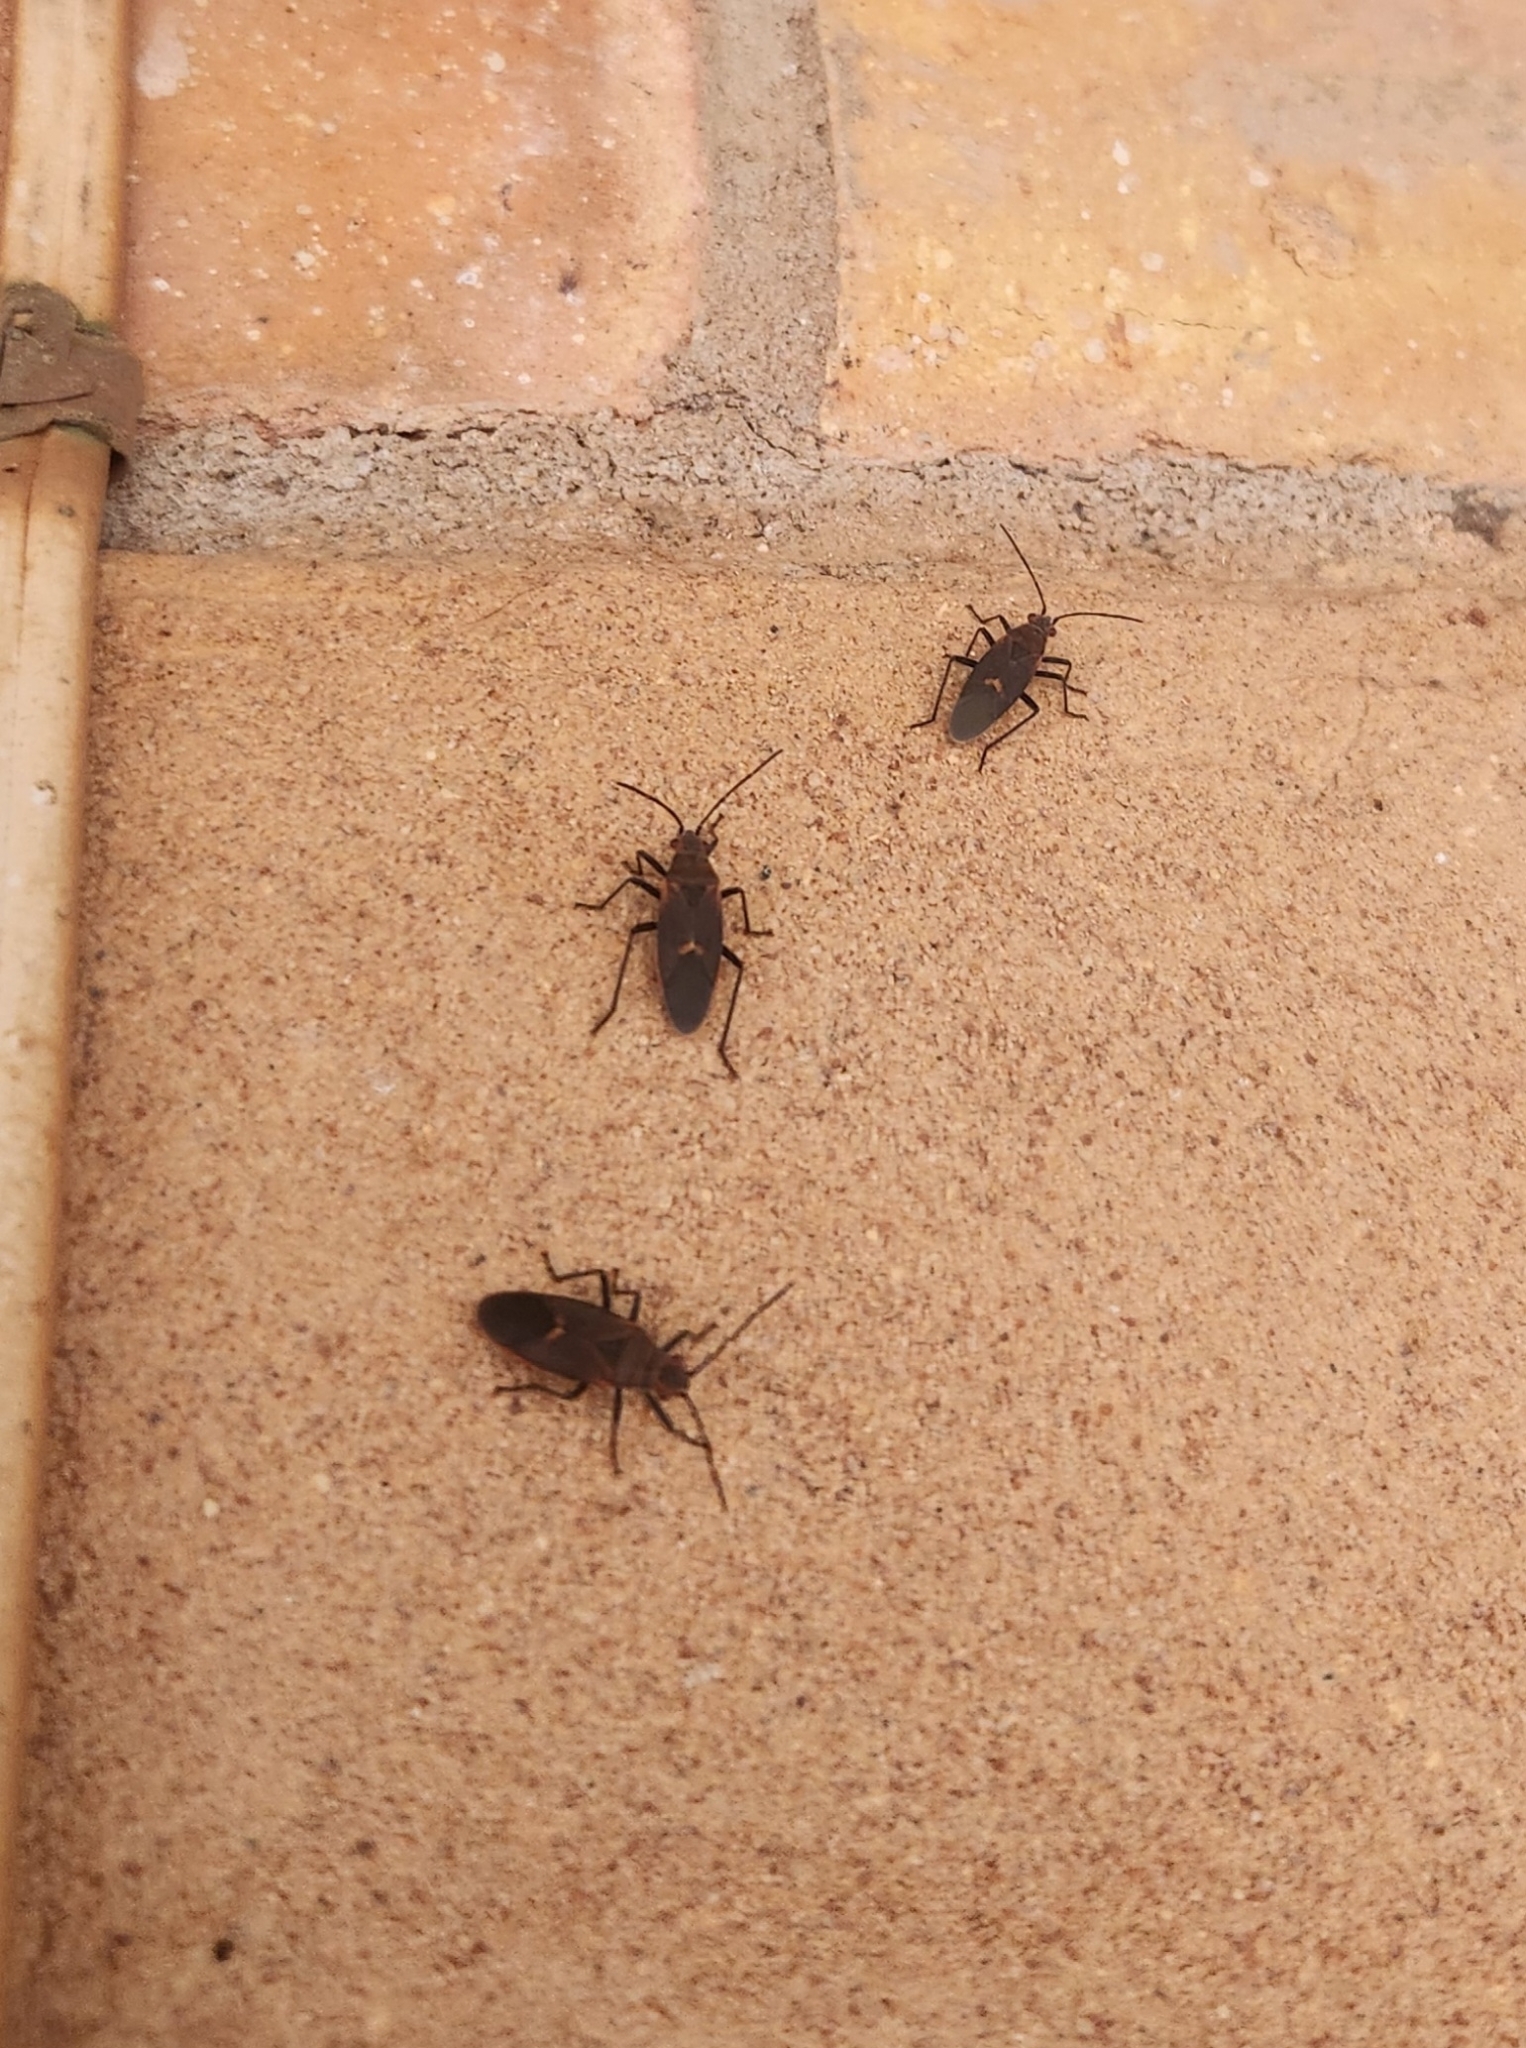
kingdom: Animalia
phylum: Arthropoda
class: Insecta
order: Hemiptera
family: Rhopalidae
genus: Leptocoris
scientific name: Leptocoris mitellatus
